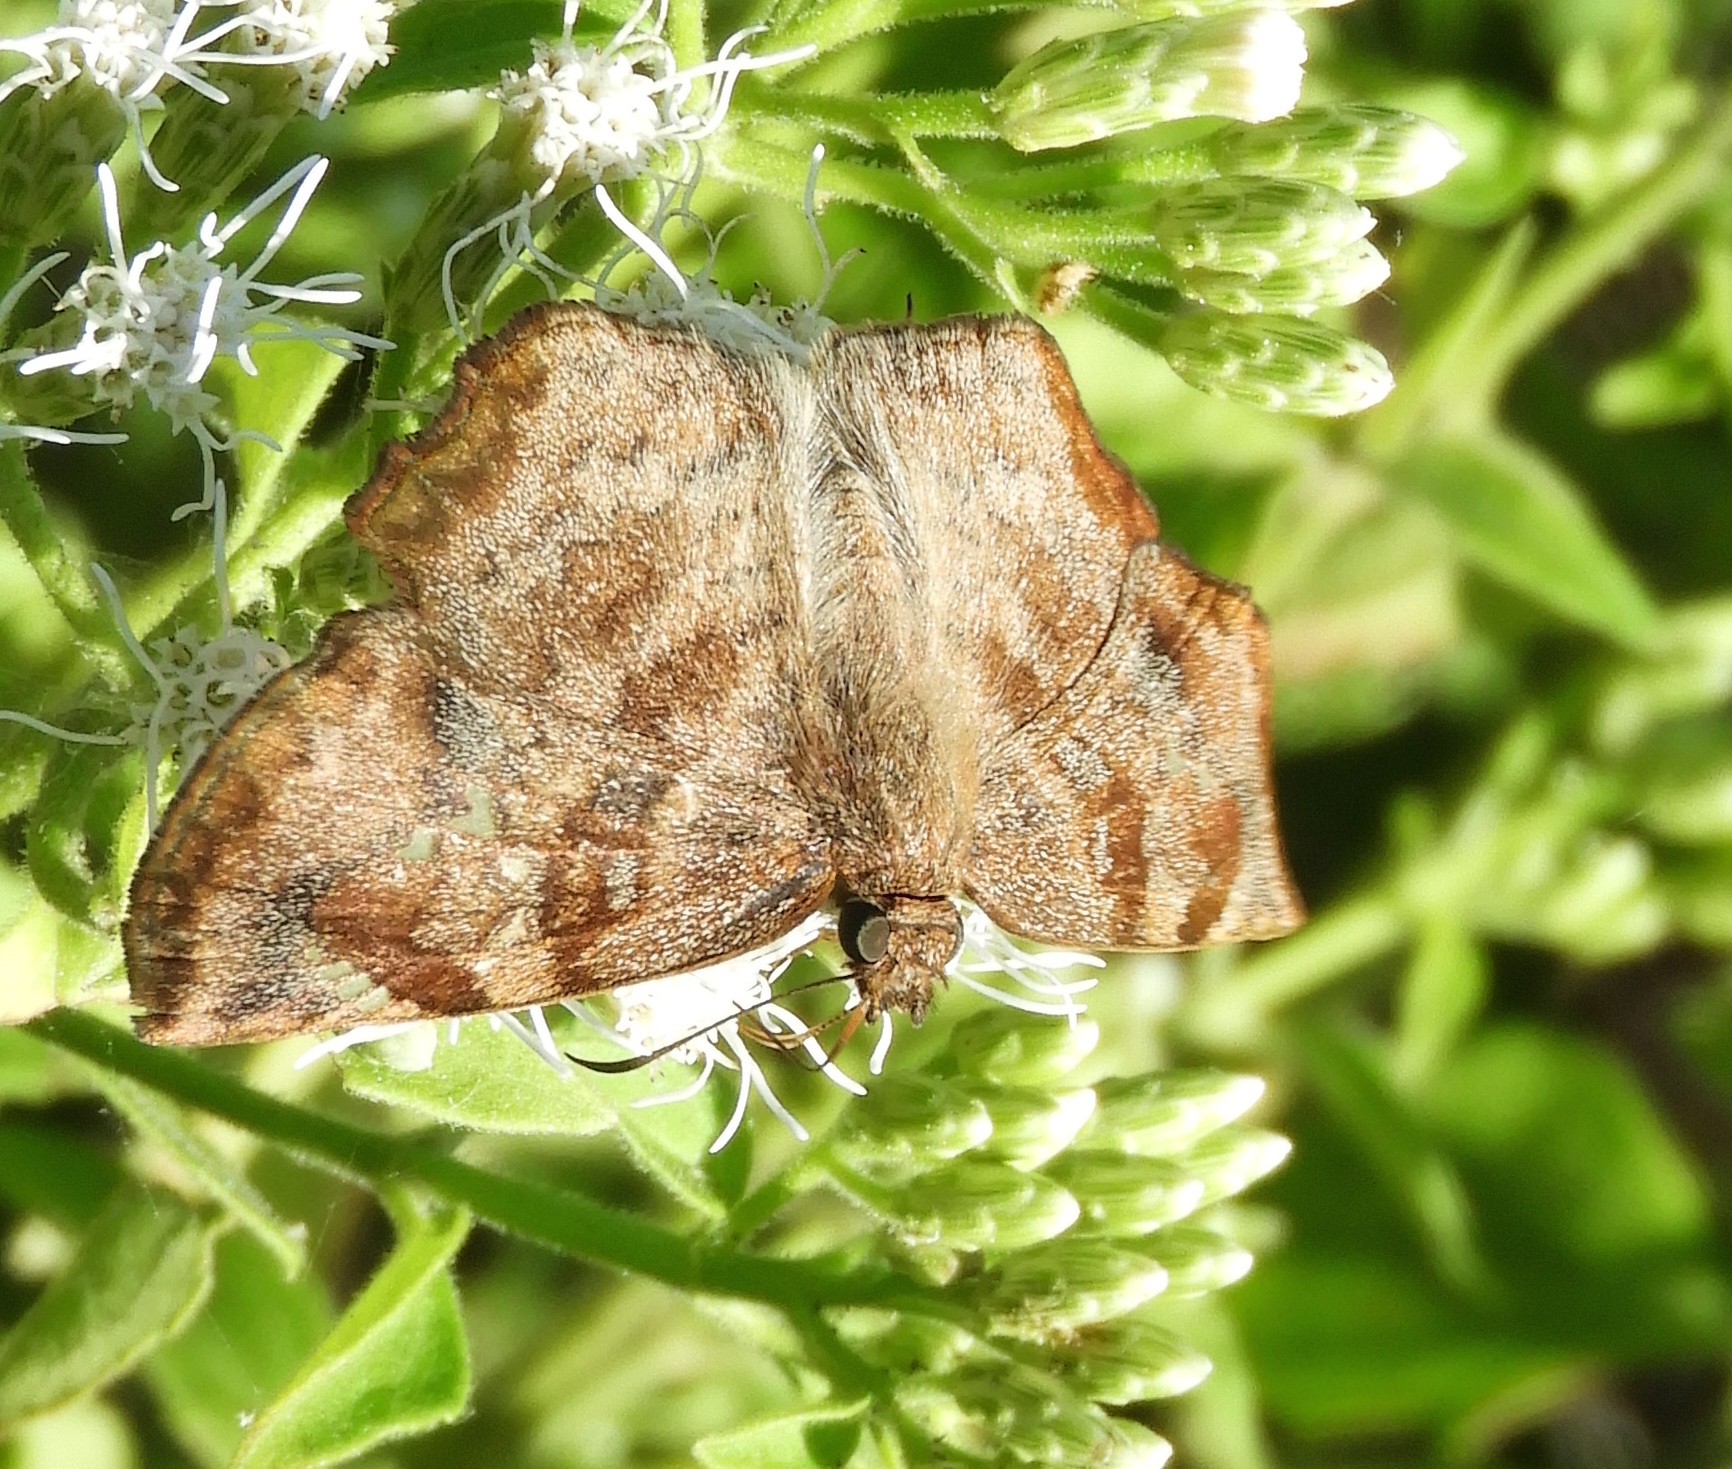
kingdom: Animalia
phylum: Arthropoda
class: Insecta
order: Lepidoptera
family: Hesperiidae
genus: Antigonus
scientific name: Antigonus erosus
